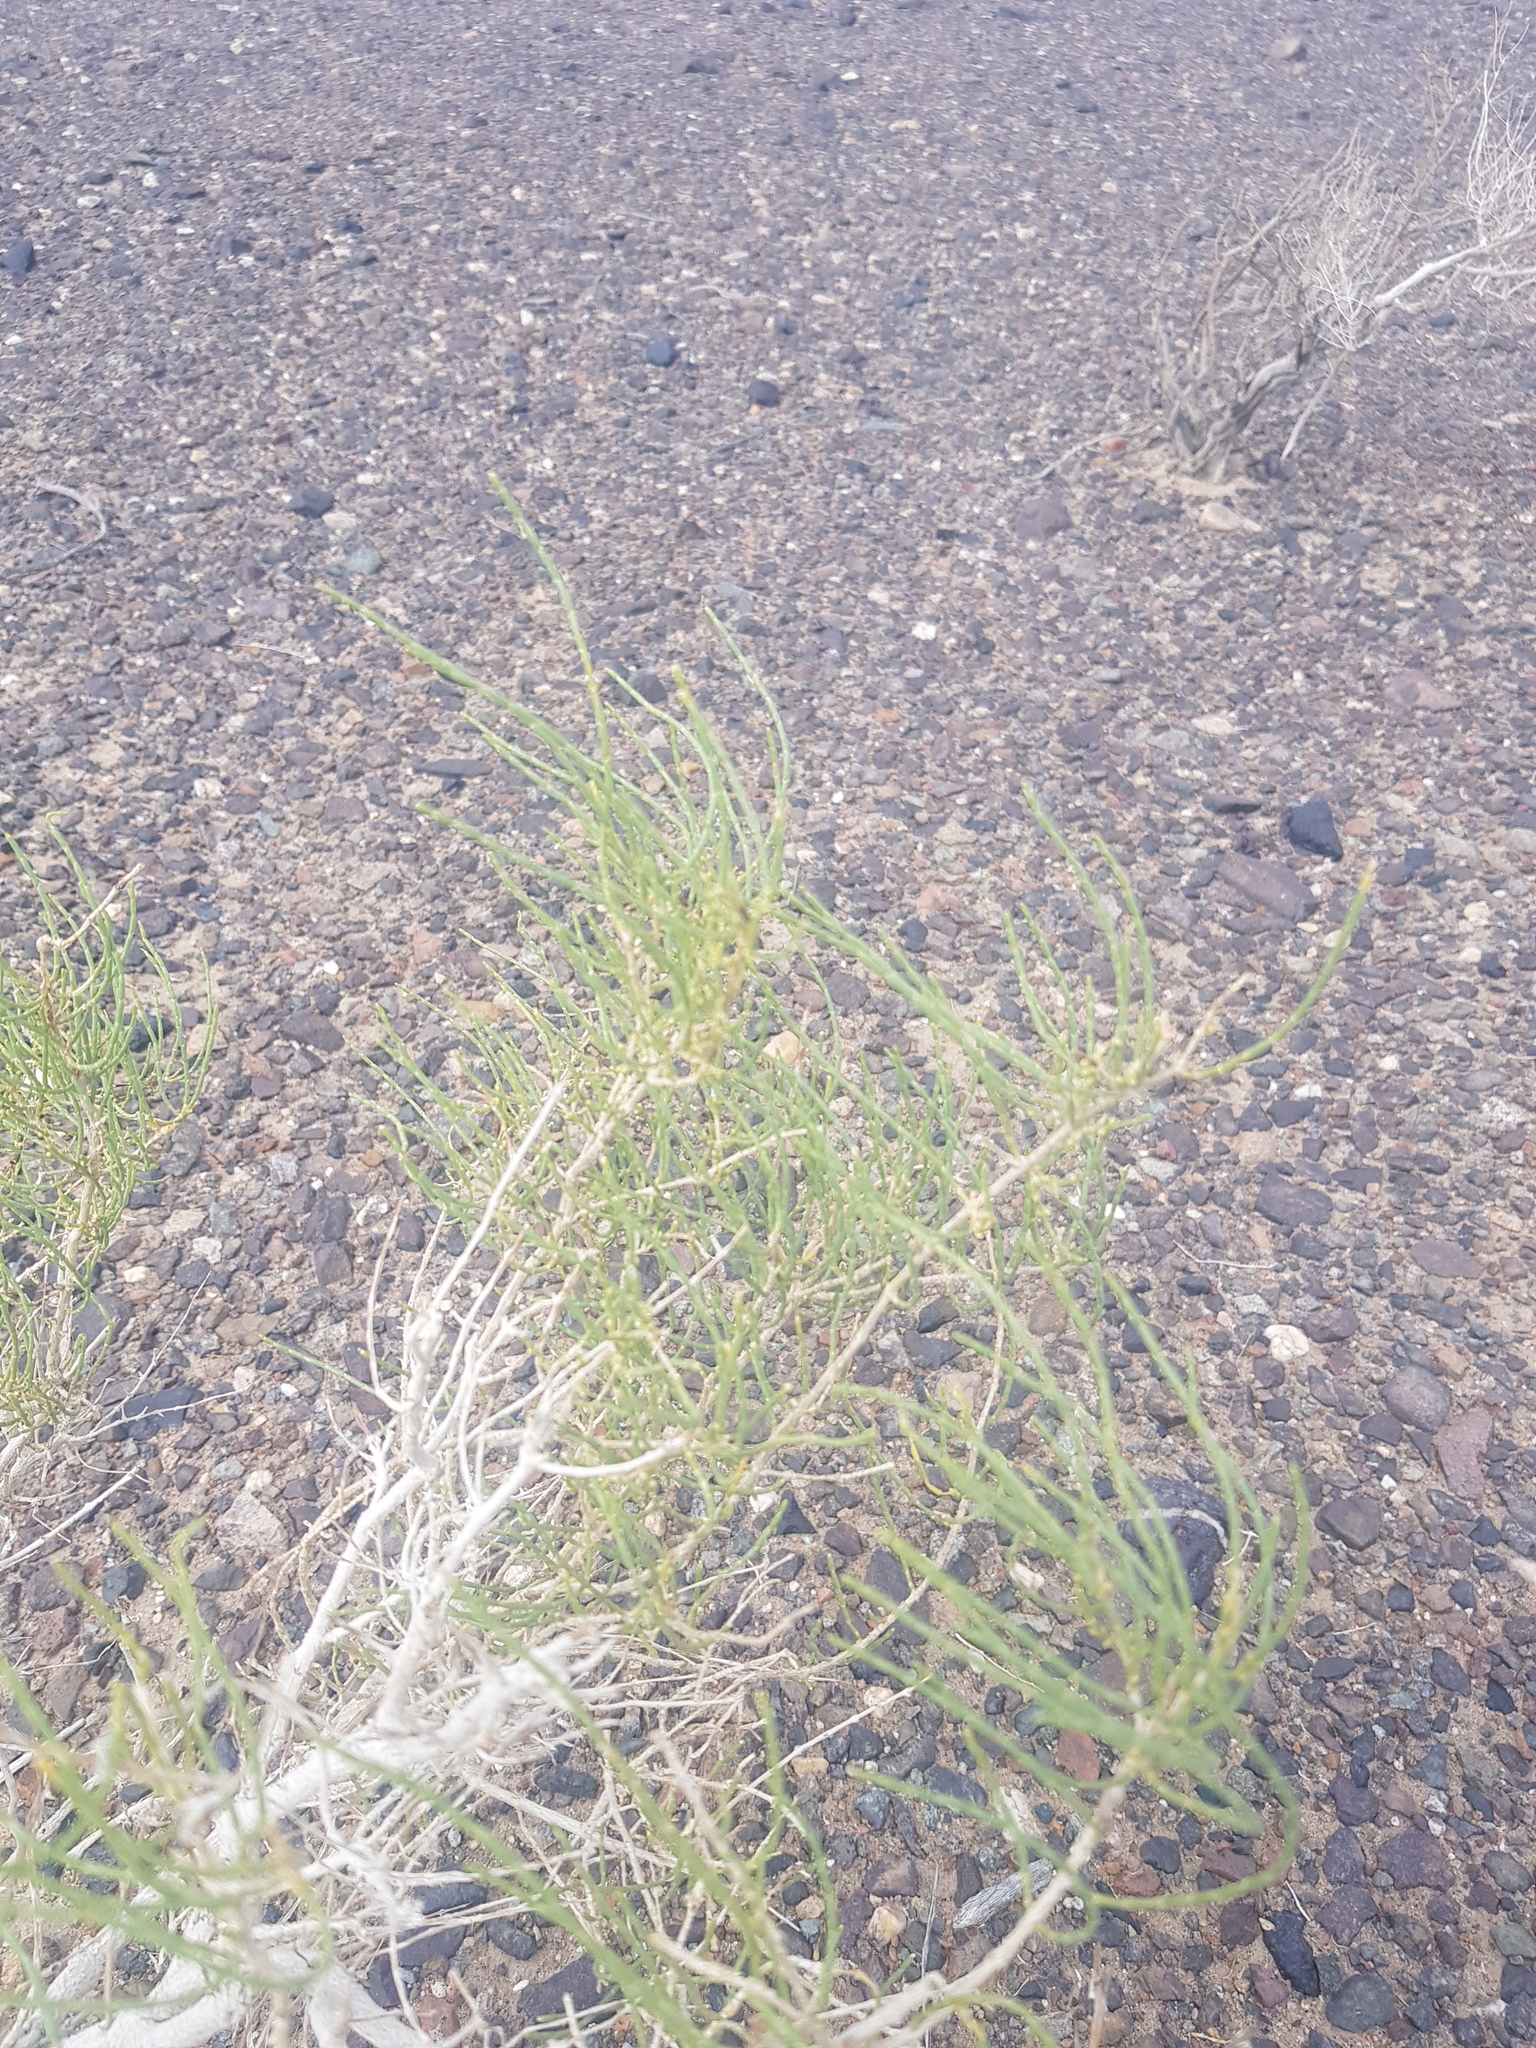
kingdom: Plantae
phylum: Tracheophyta
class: Magnoliopsida
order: Caryophyllales
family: Amaranthaceae
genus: Haloxylon
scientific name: Haloxylon ammodendron
